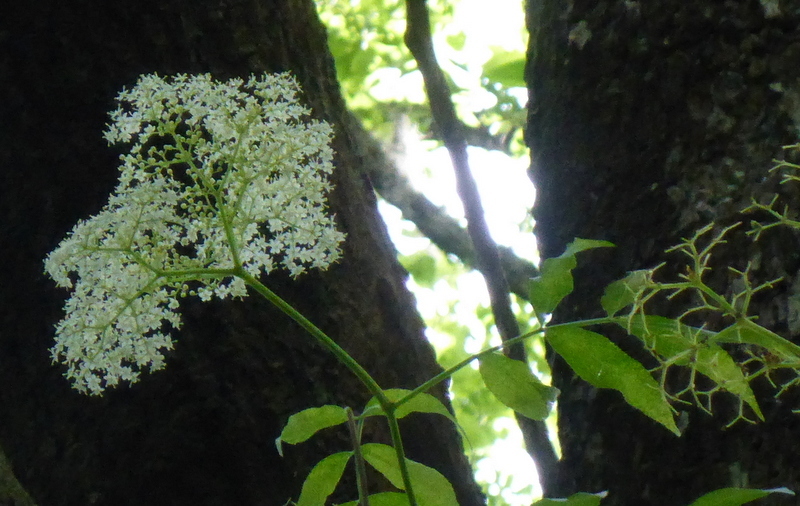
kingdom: Plantae
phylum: Tracheophyta
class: Magnoliopsida
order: Dipsacales
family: Viburnaceae
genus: Sambucus
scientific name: Sambucus canadensis
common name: American elder
